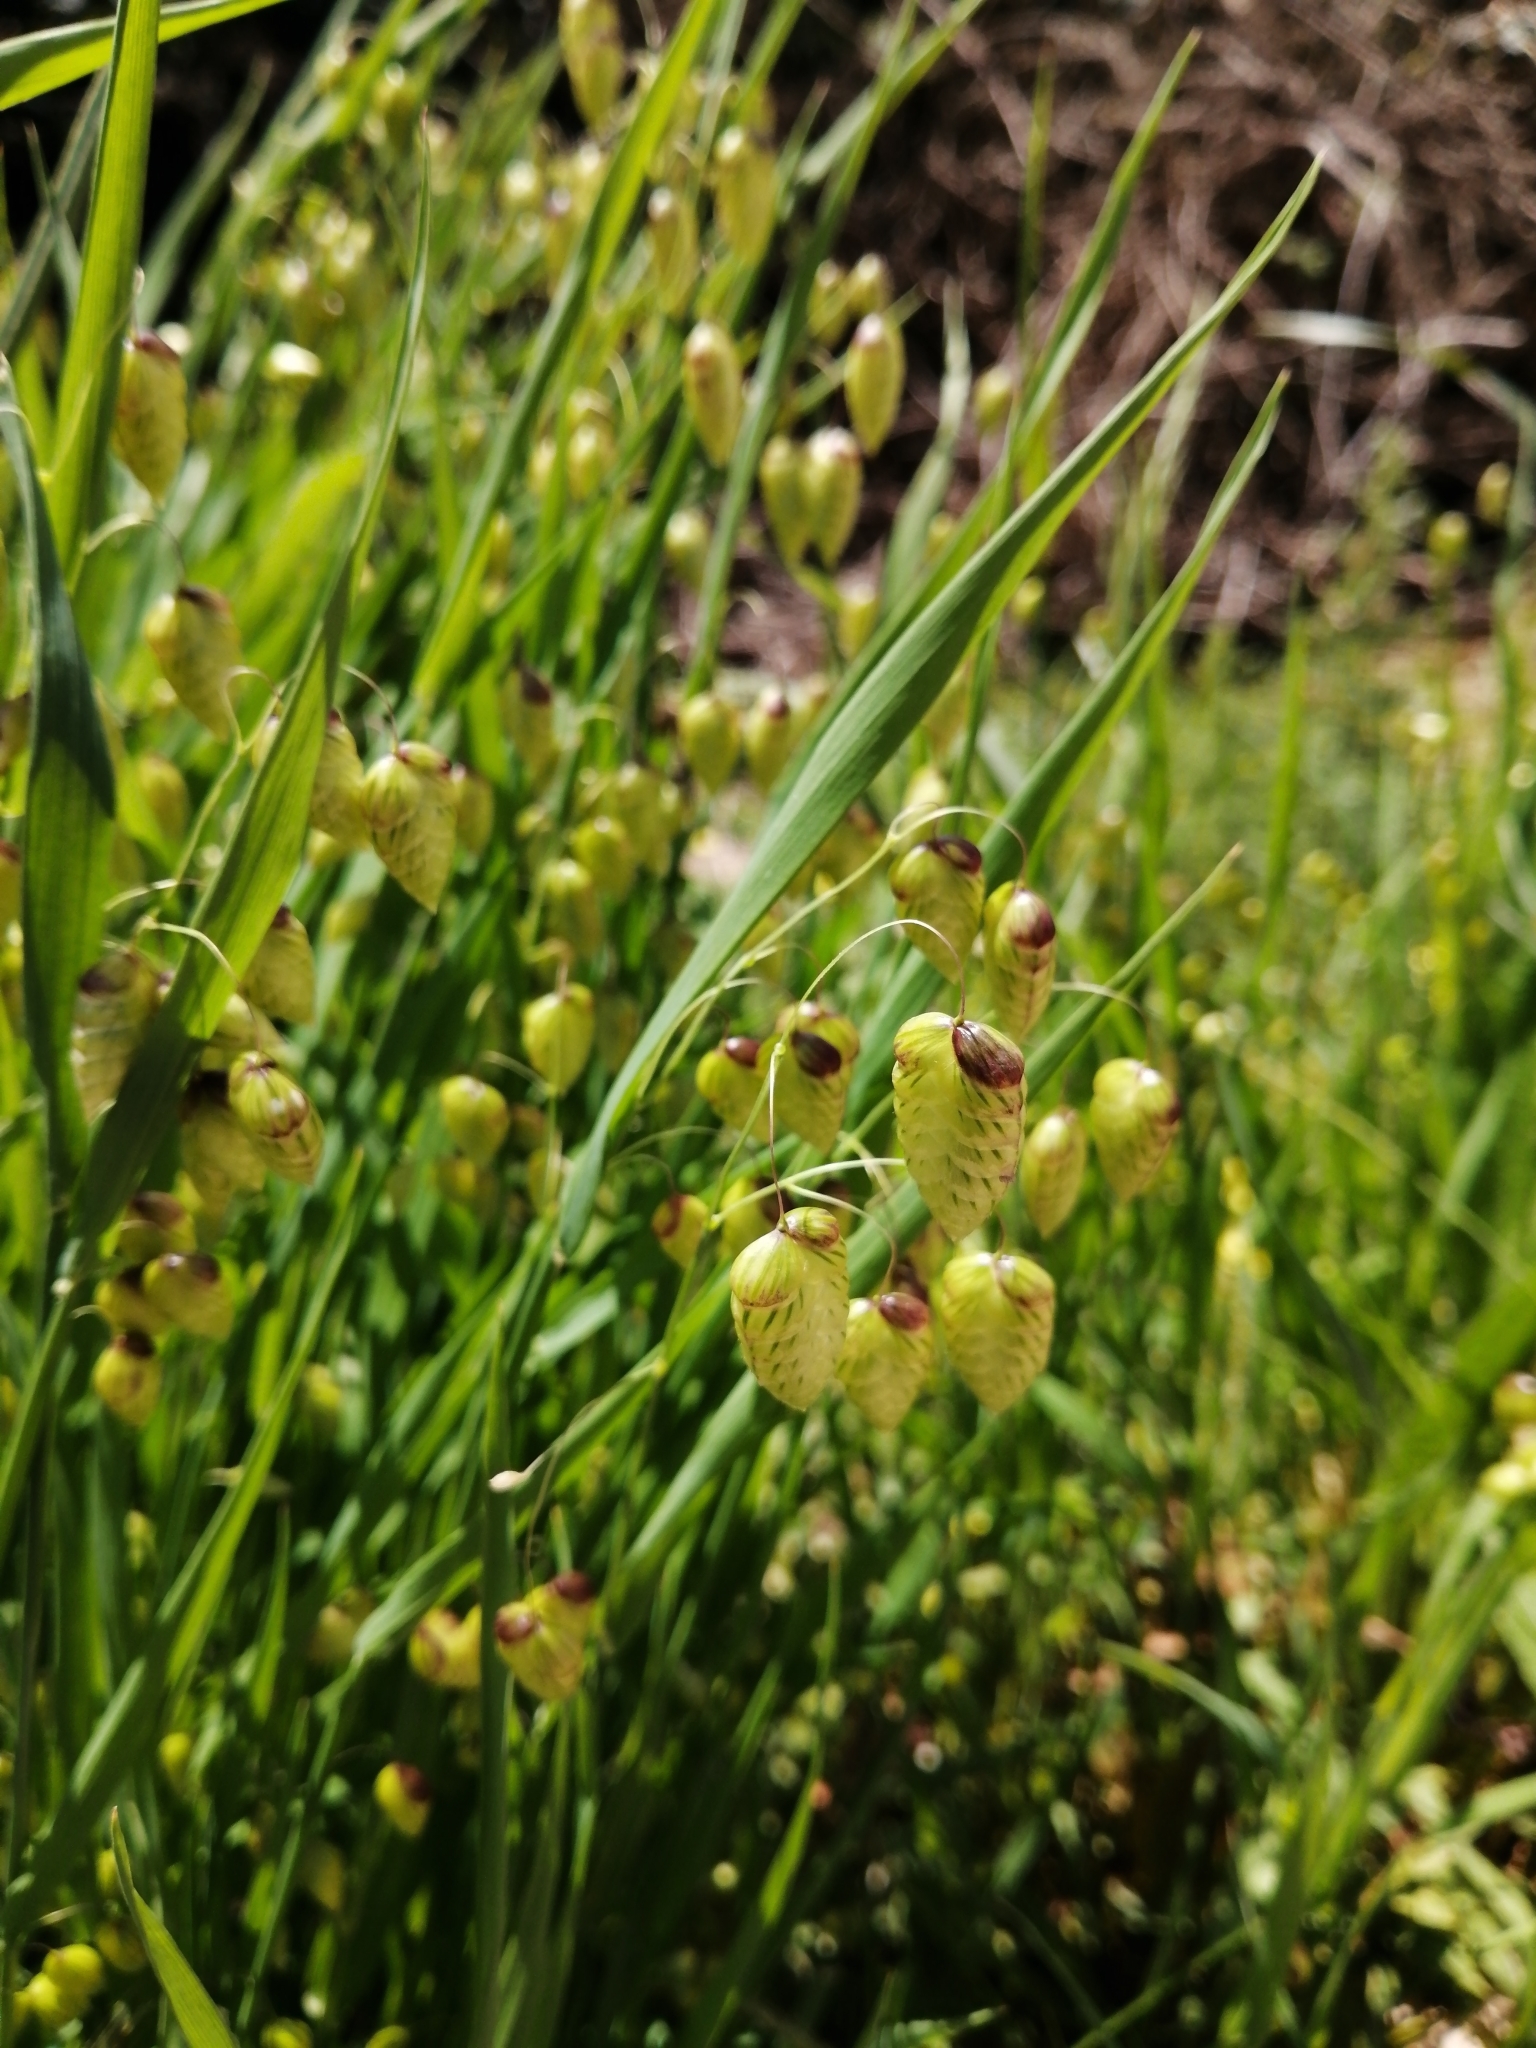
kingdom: Plantae
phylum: Tracheophyta
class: Liliopsida
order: Poales
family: Poaceae
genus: Briza
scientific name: Briza maxima
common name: Big quakinggrass
